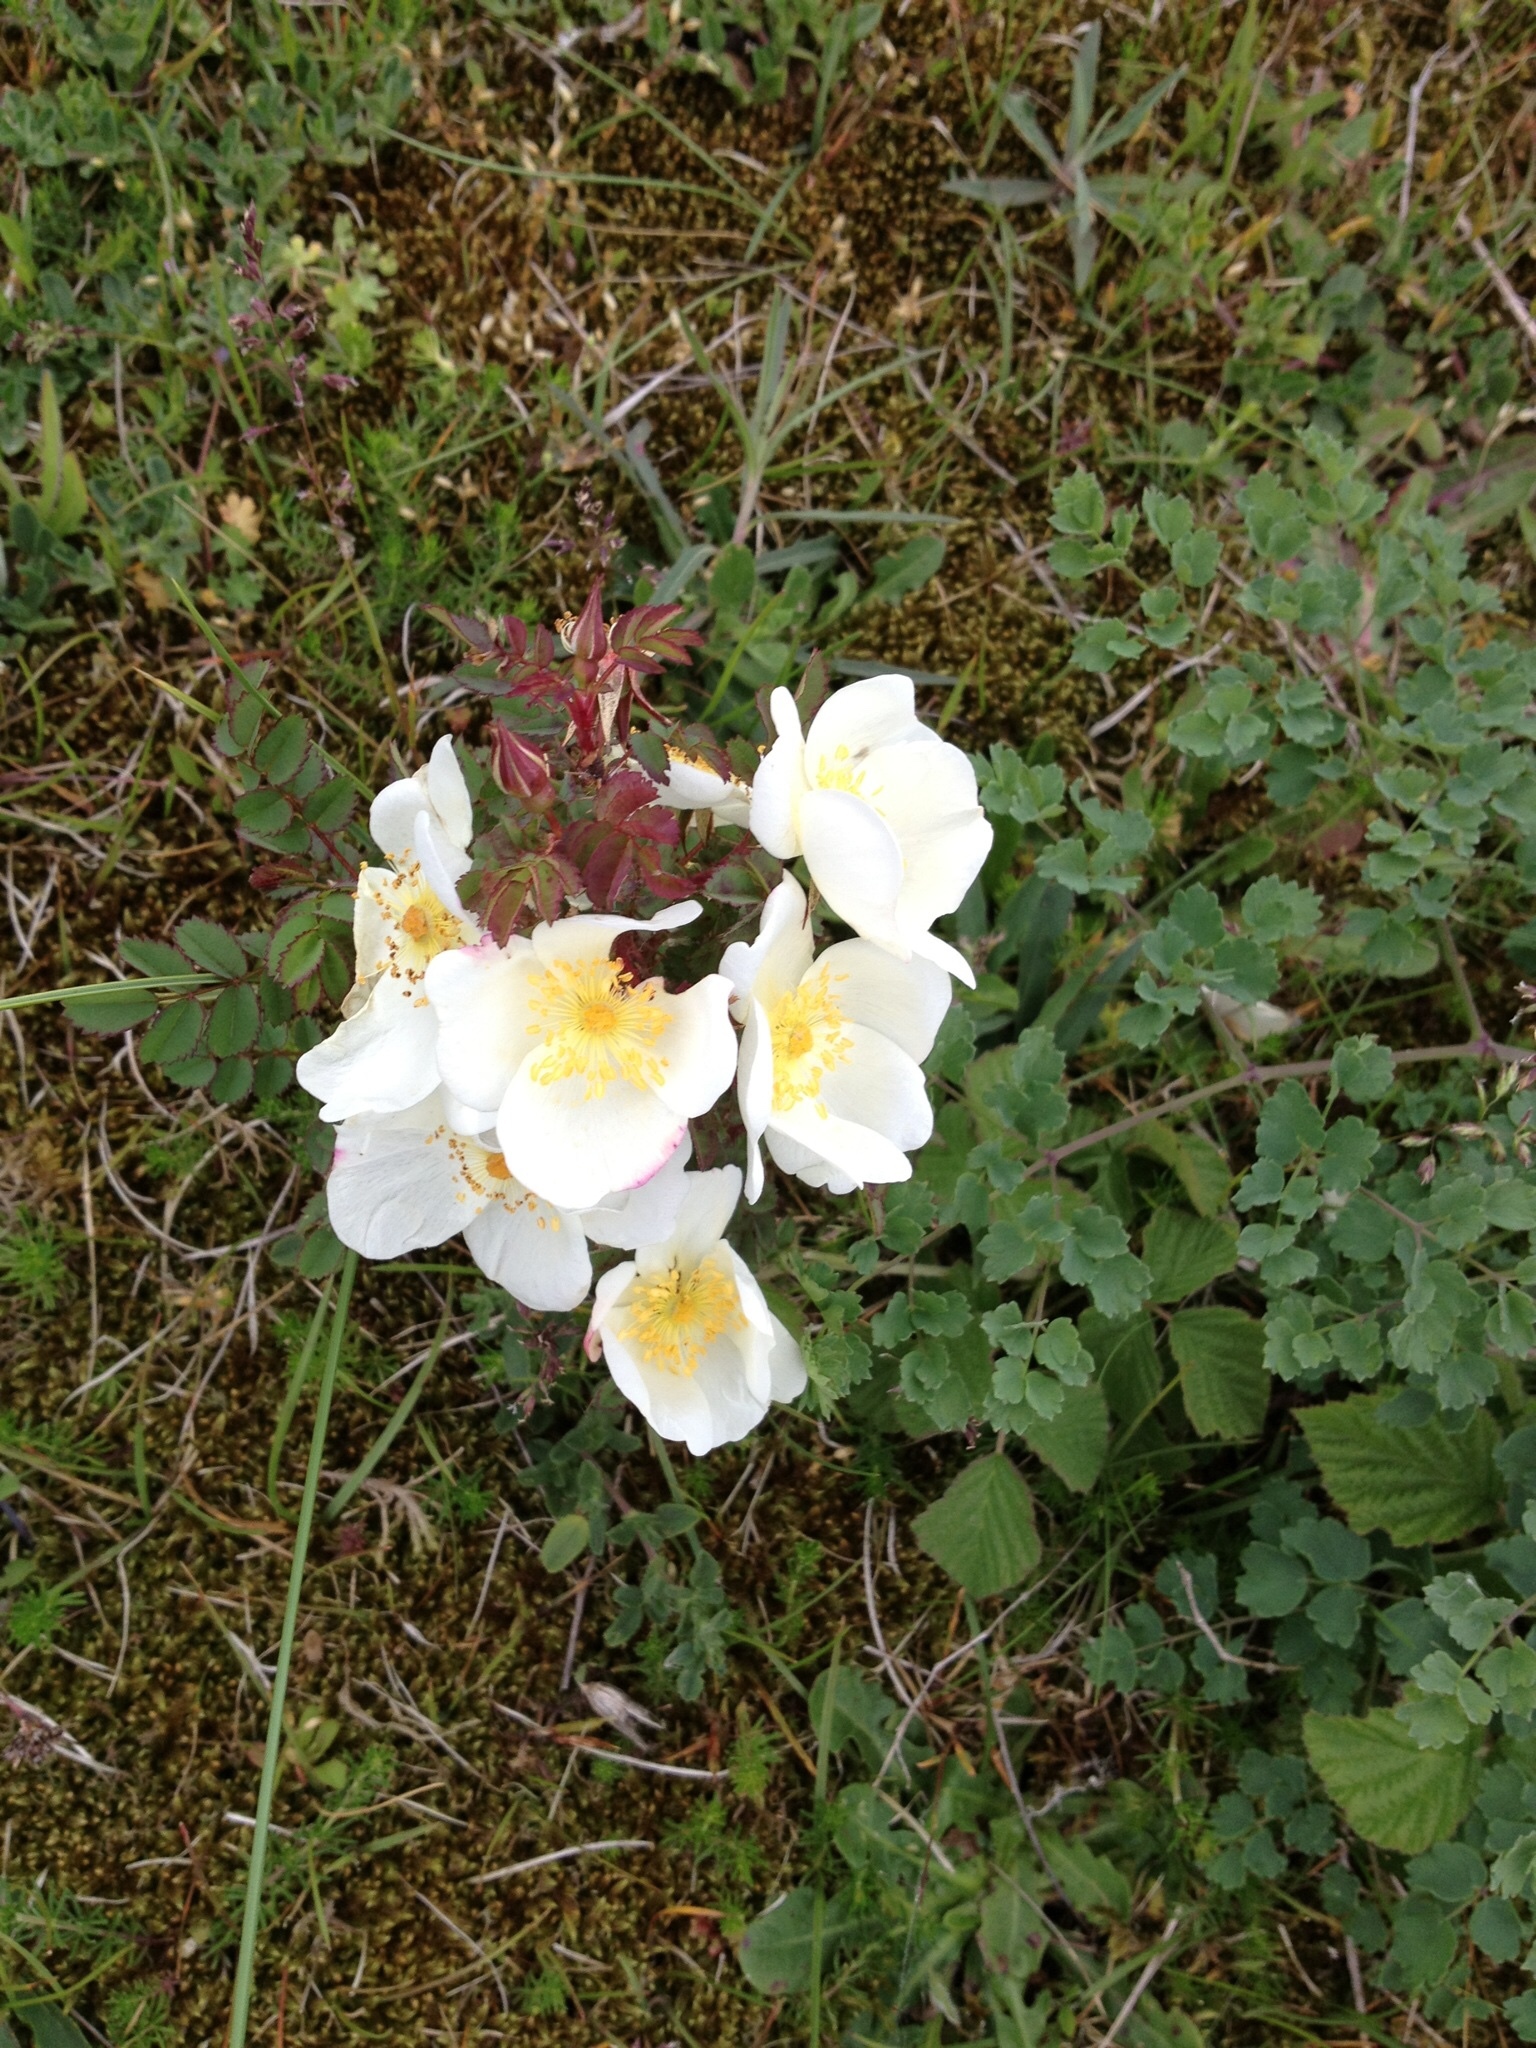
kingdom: Plantae
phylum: Tracheophyta
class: Magnoliopsida
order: Rosales
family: Rosaceae
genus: Rosa
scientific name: Rosa spinosissima
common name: Burnet rose
